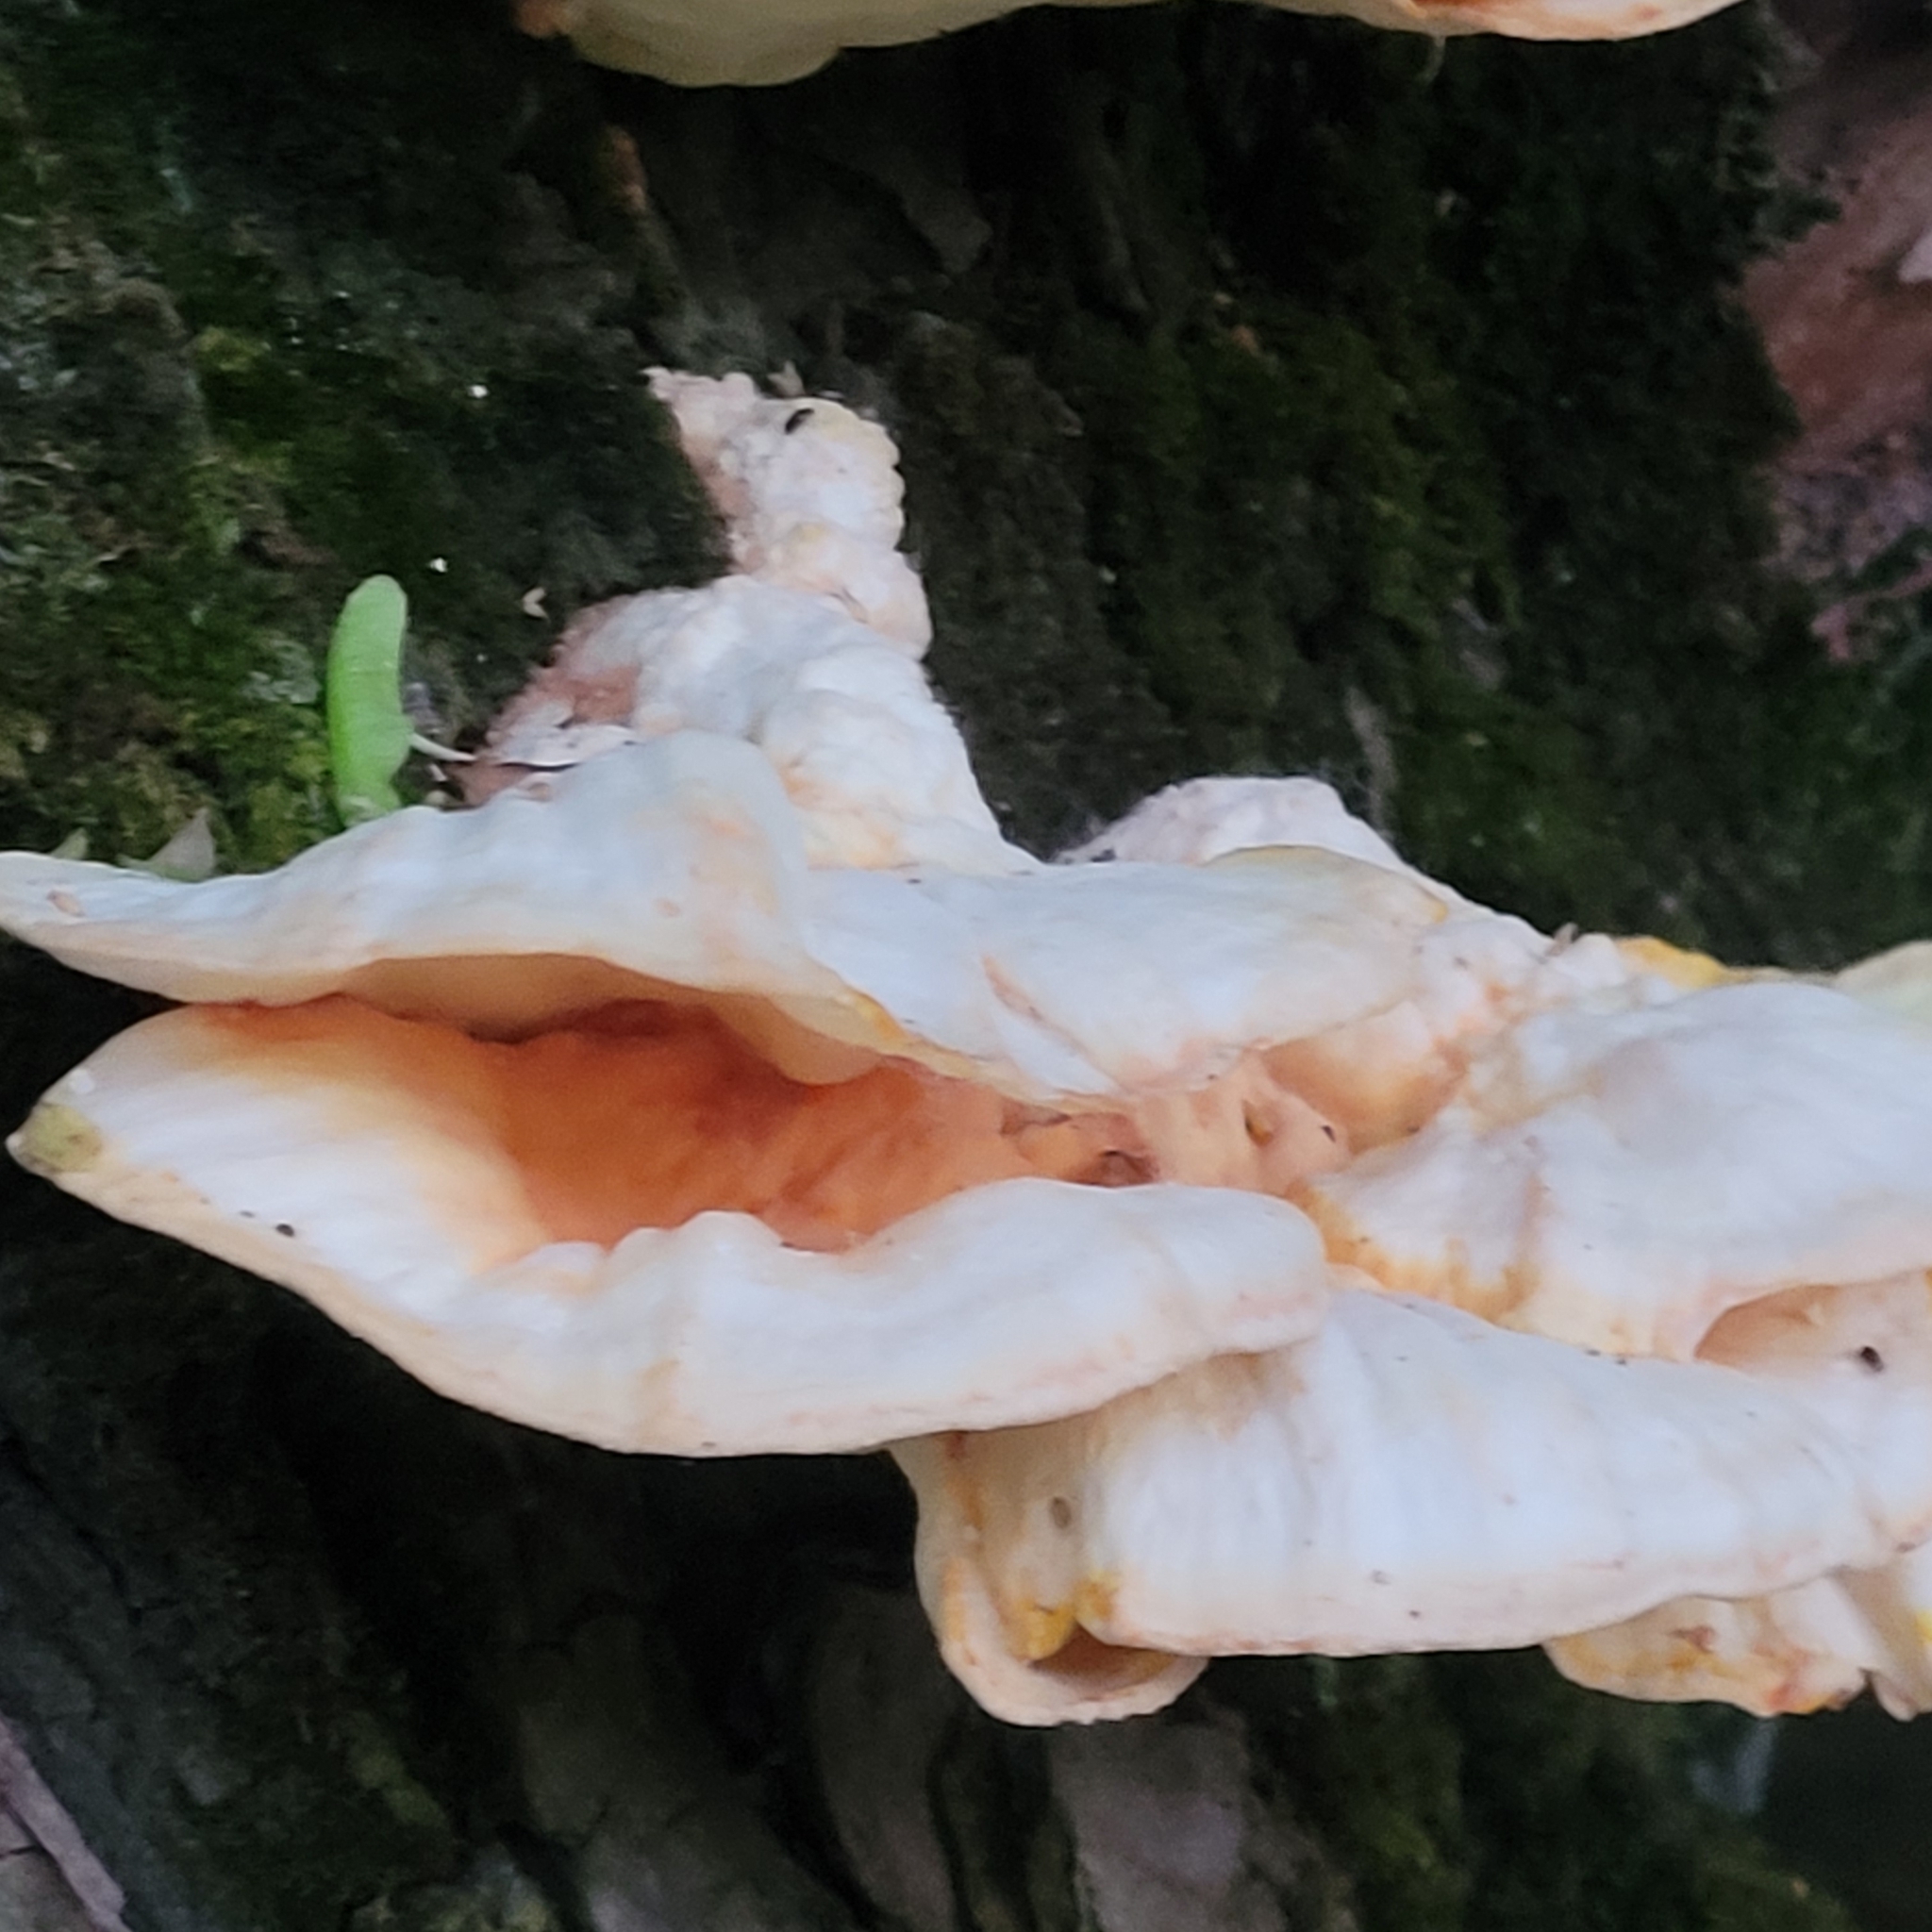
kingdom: Fungi
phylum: Basidiomycota
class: Agaricomycetes
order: Polyporales
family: Laetiporaceae
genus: Laetiporus
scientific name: Laetiporus sulphureus
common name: Chicken of the woods
